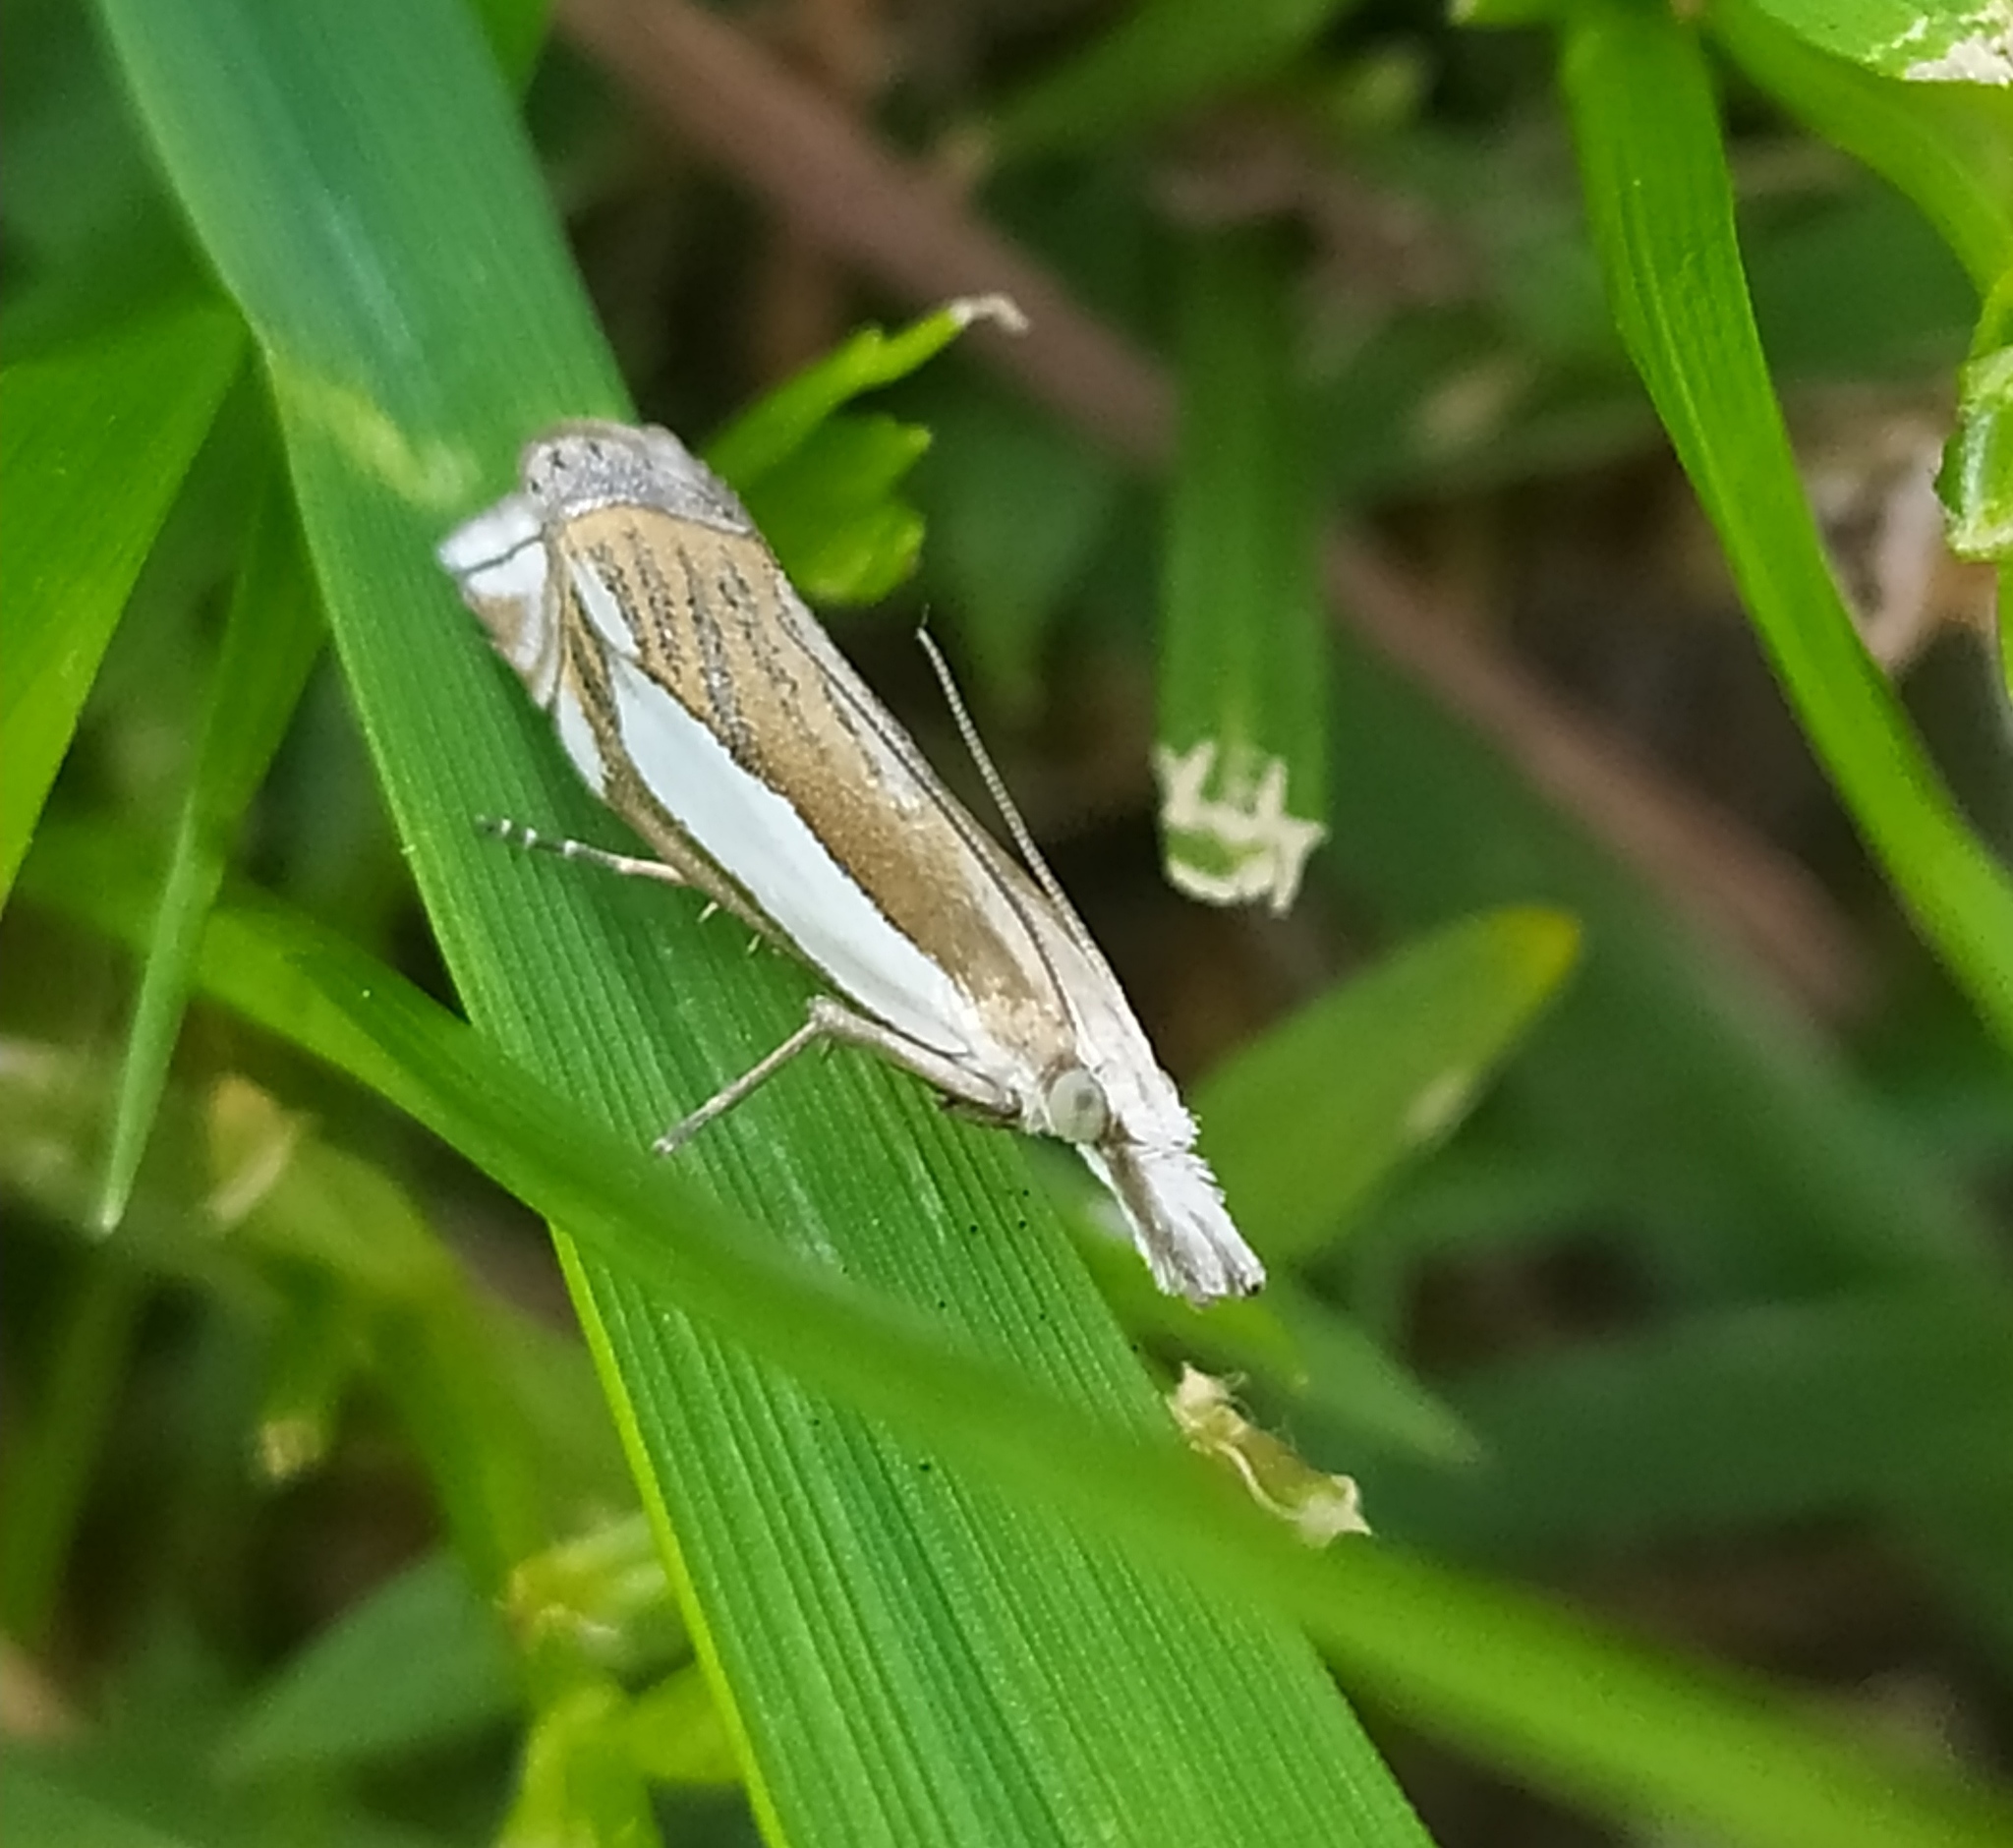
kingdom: Animalia
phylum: Arthropoda
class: Insecta
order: Lepidoptera
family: Crambidae
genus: Crambus
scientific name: Crambus pascuella
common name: Inlaid grass-veneer
